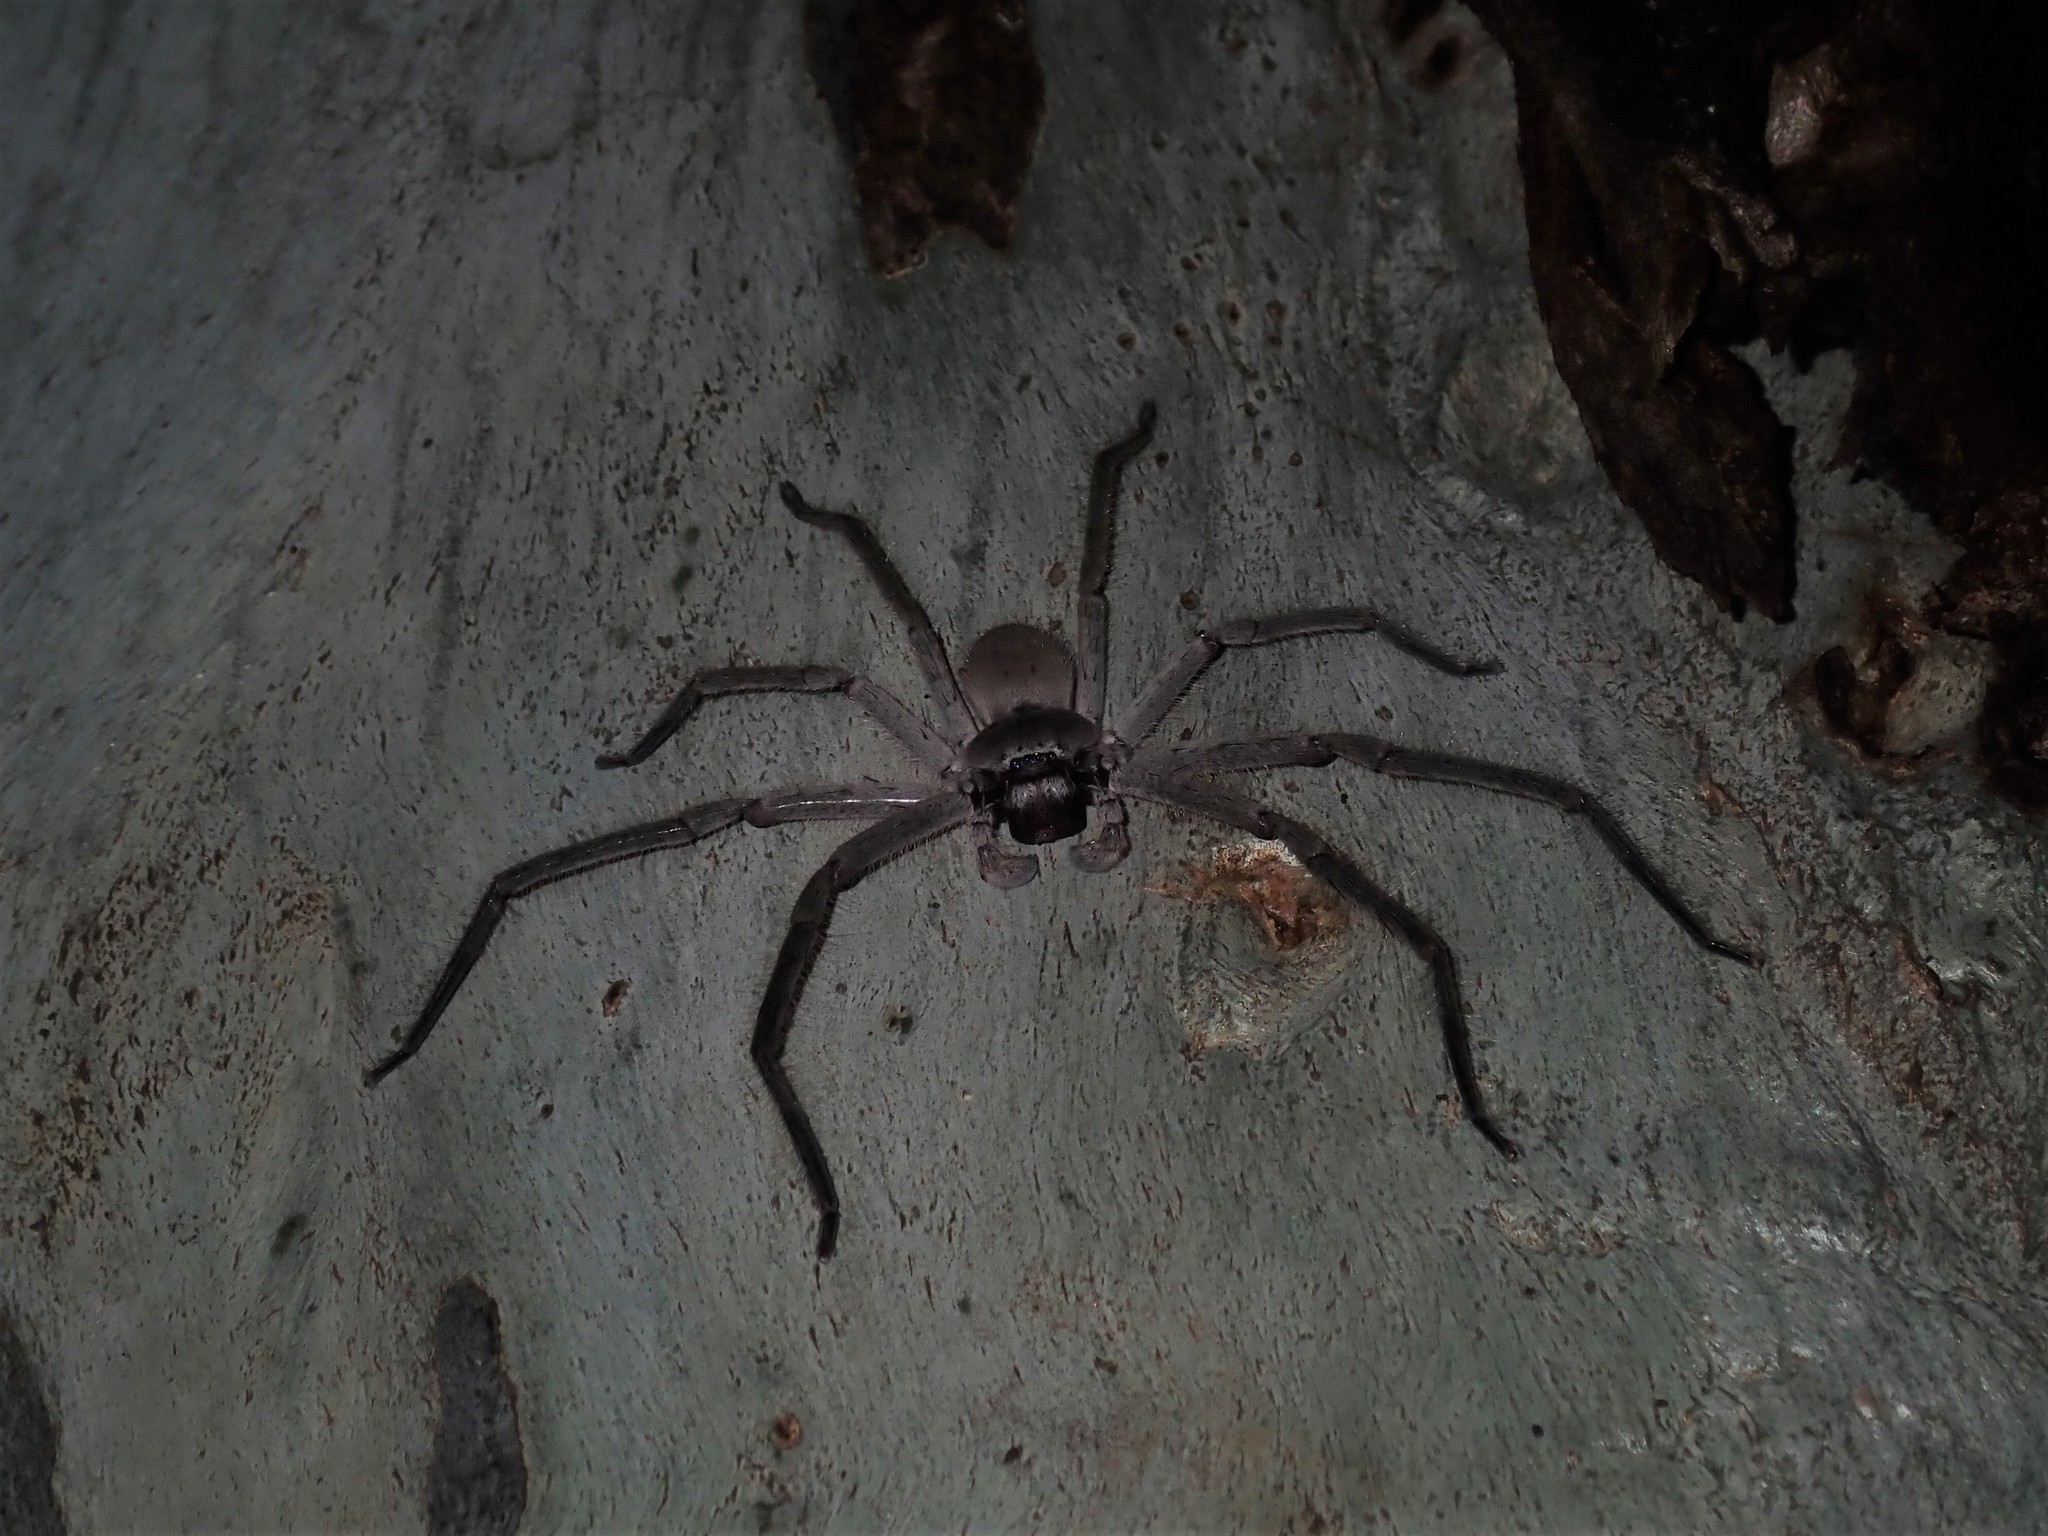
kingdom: Animalia
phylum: Arthropoda
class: Arachnida
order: Araneae
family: Sparassidae
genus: Isopeda
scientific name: Isopeda villosa
